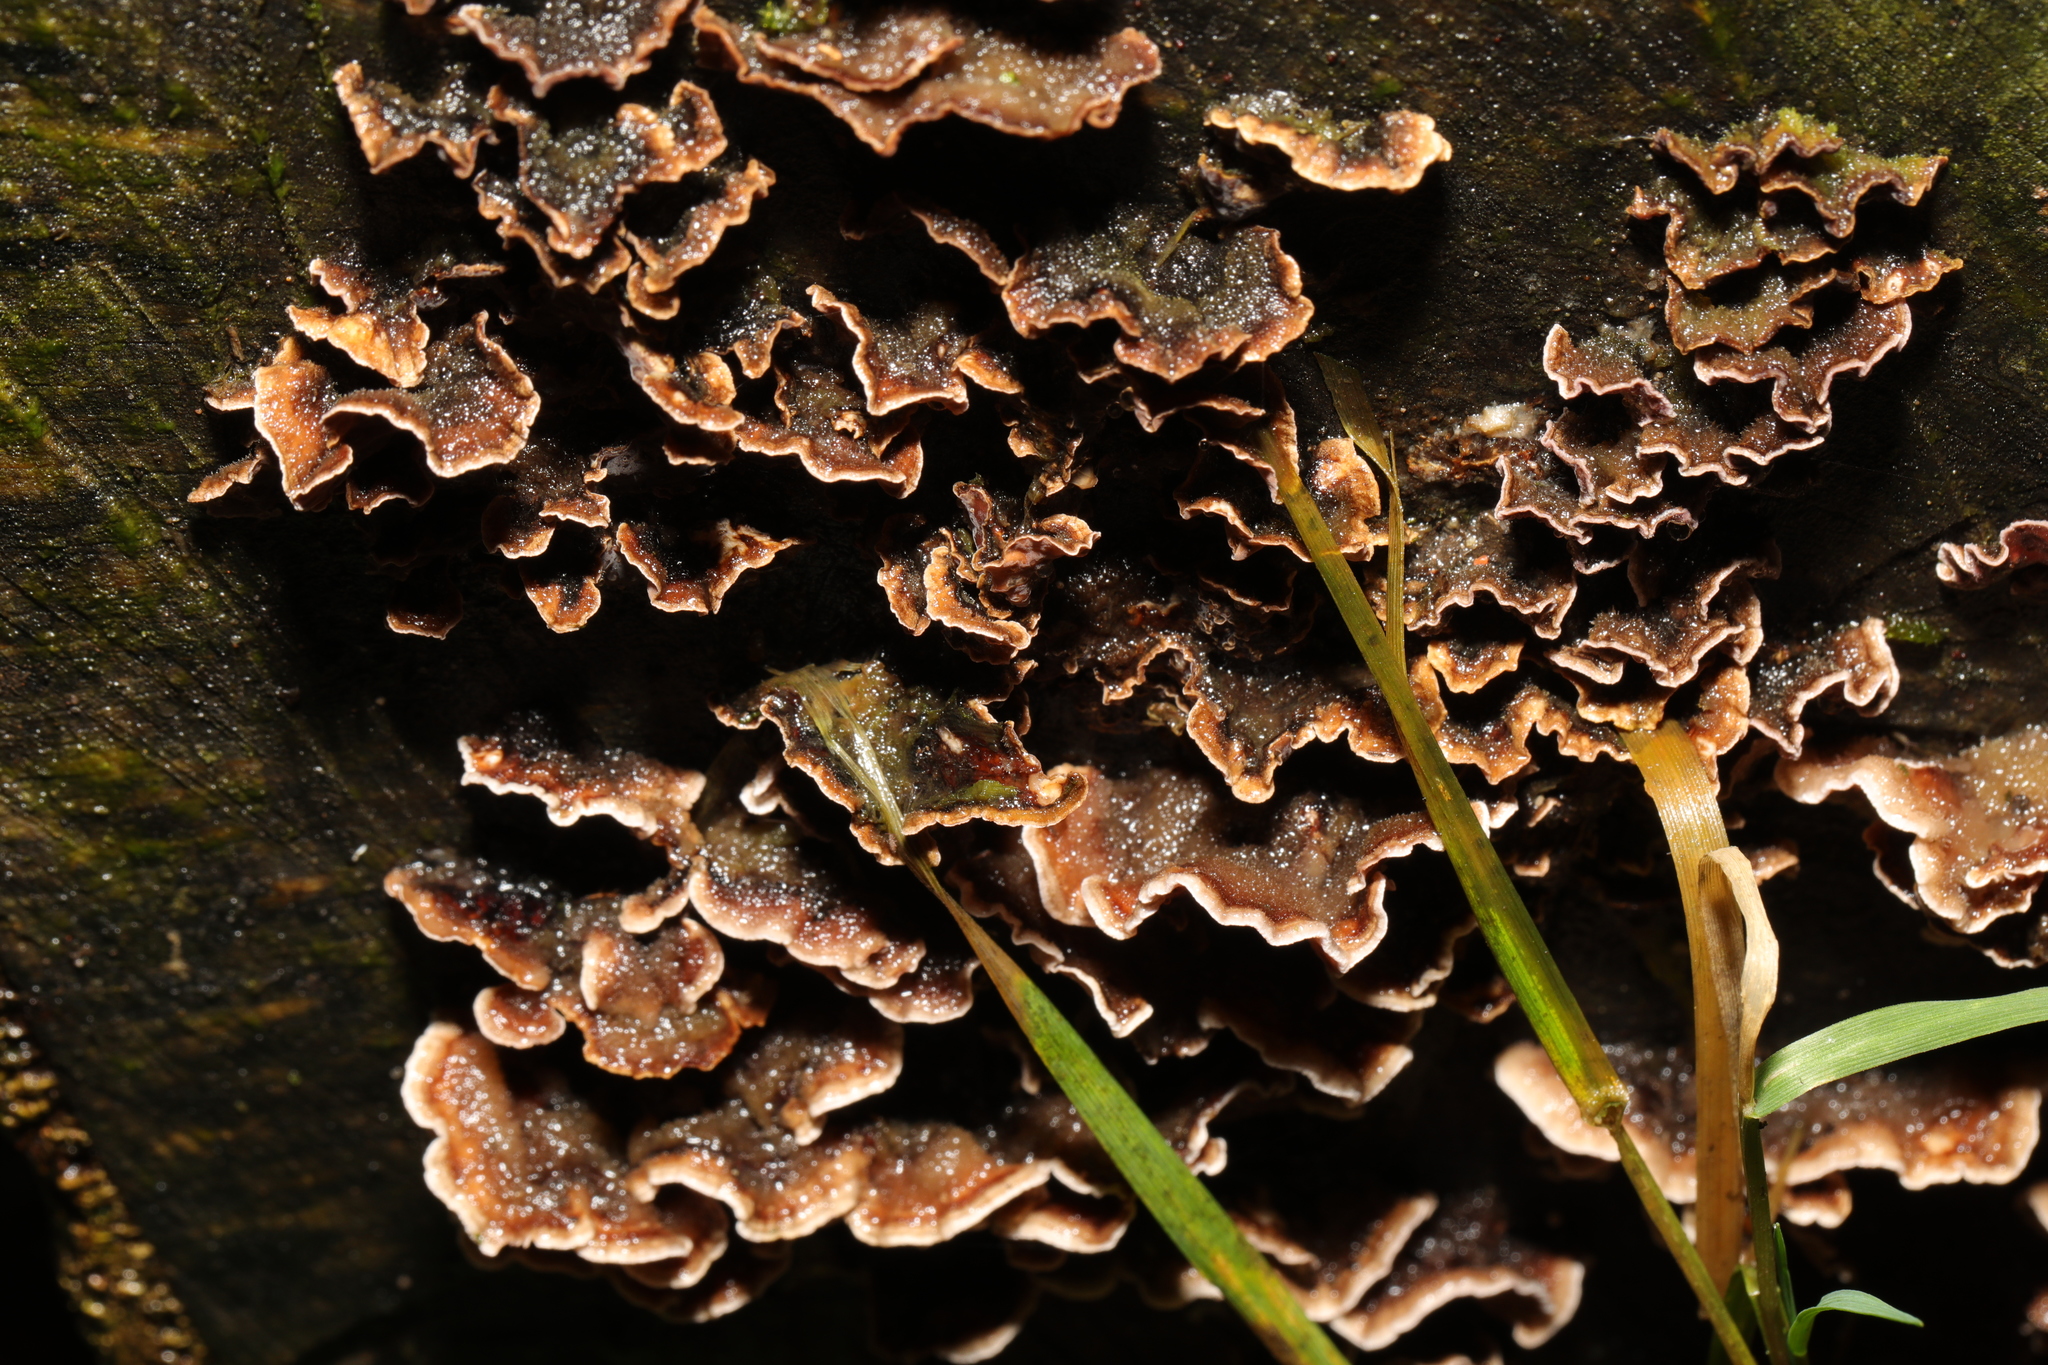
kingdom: Fungi
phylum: Basidiomycota
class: Agaricomycetes
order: Agaricales
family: Cyphellaceae
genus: Chondrostereum
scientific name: Chondrostereum purpureum
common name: Silver leaf disease
